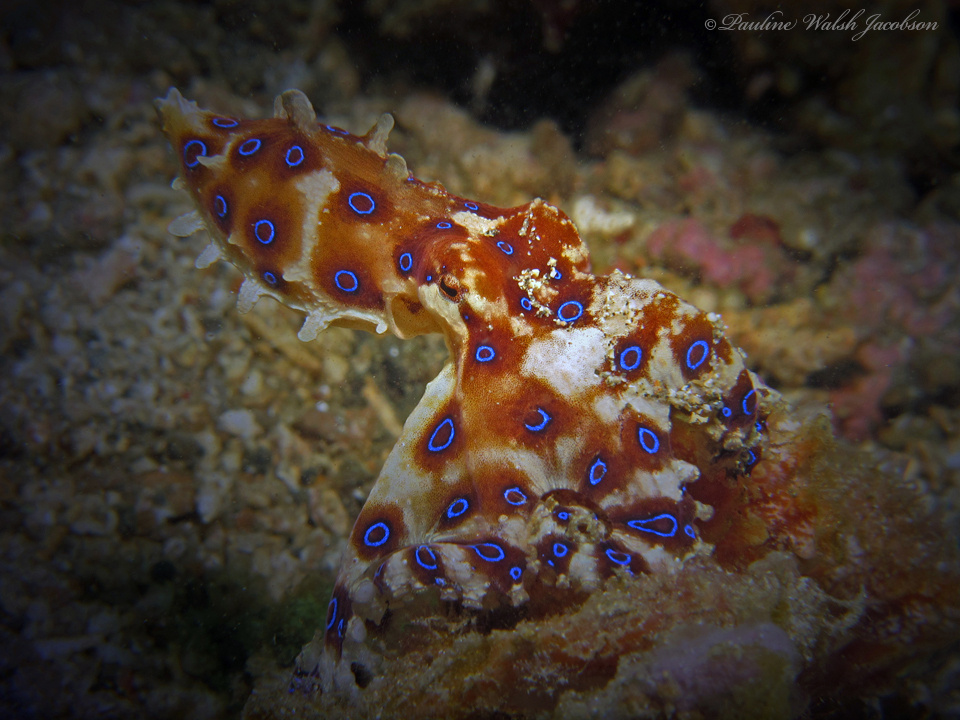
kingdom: Animalia
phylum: Mollusca
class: Cephalopoda
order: Octopoda
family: Octopodidae
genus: Hapalochlaena
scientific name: Hapalochlaena lunulata
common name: Greater blue-ringed octopus
